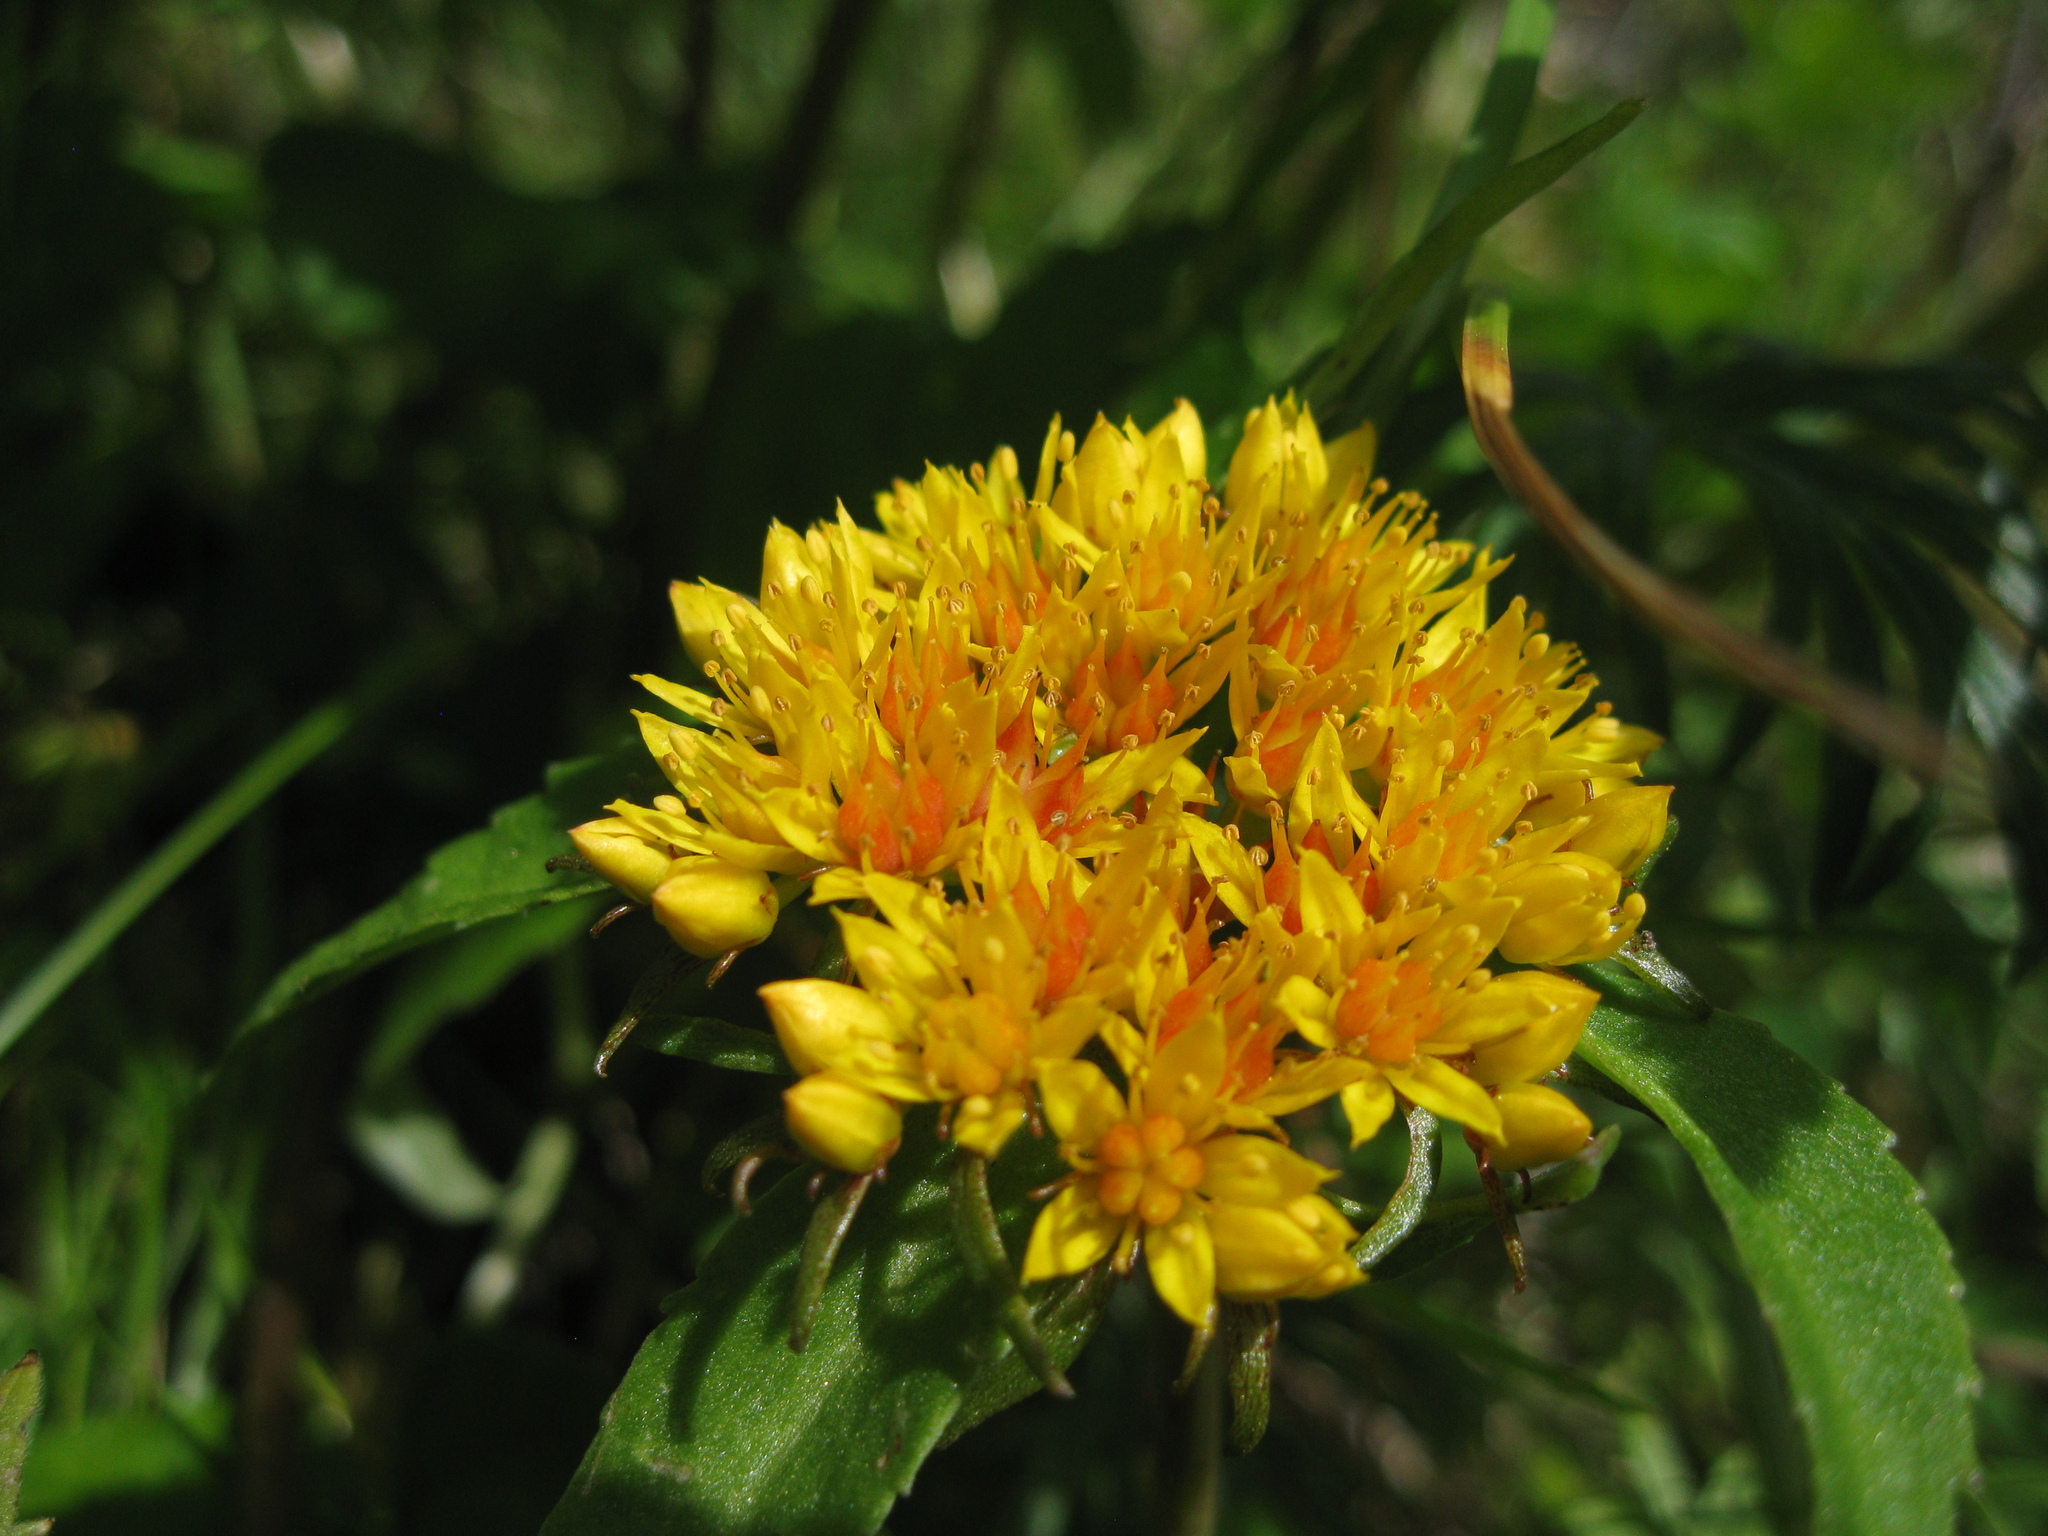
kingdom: Plantae
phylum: Tracheophyta
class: Magnoliopsida
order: Saxifragales
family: Crassulaceae
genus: Phedimus
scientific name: Phedimus aizoon
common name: Orpin aizoon
